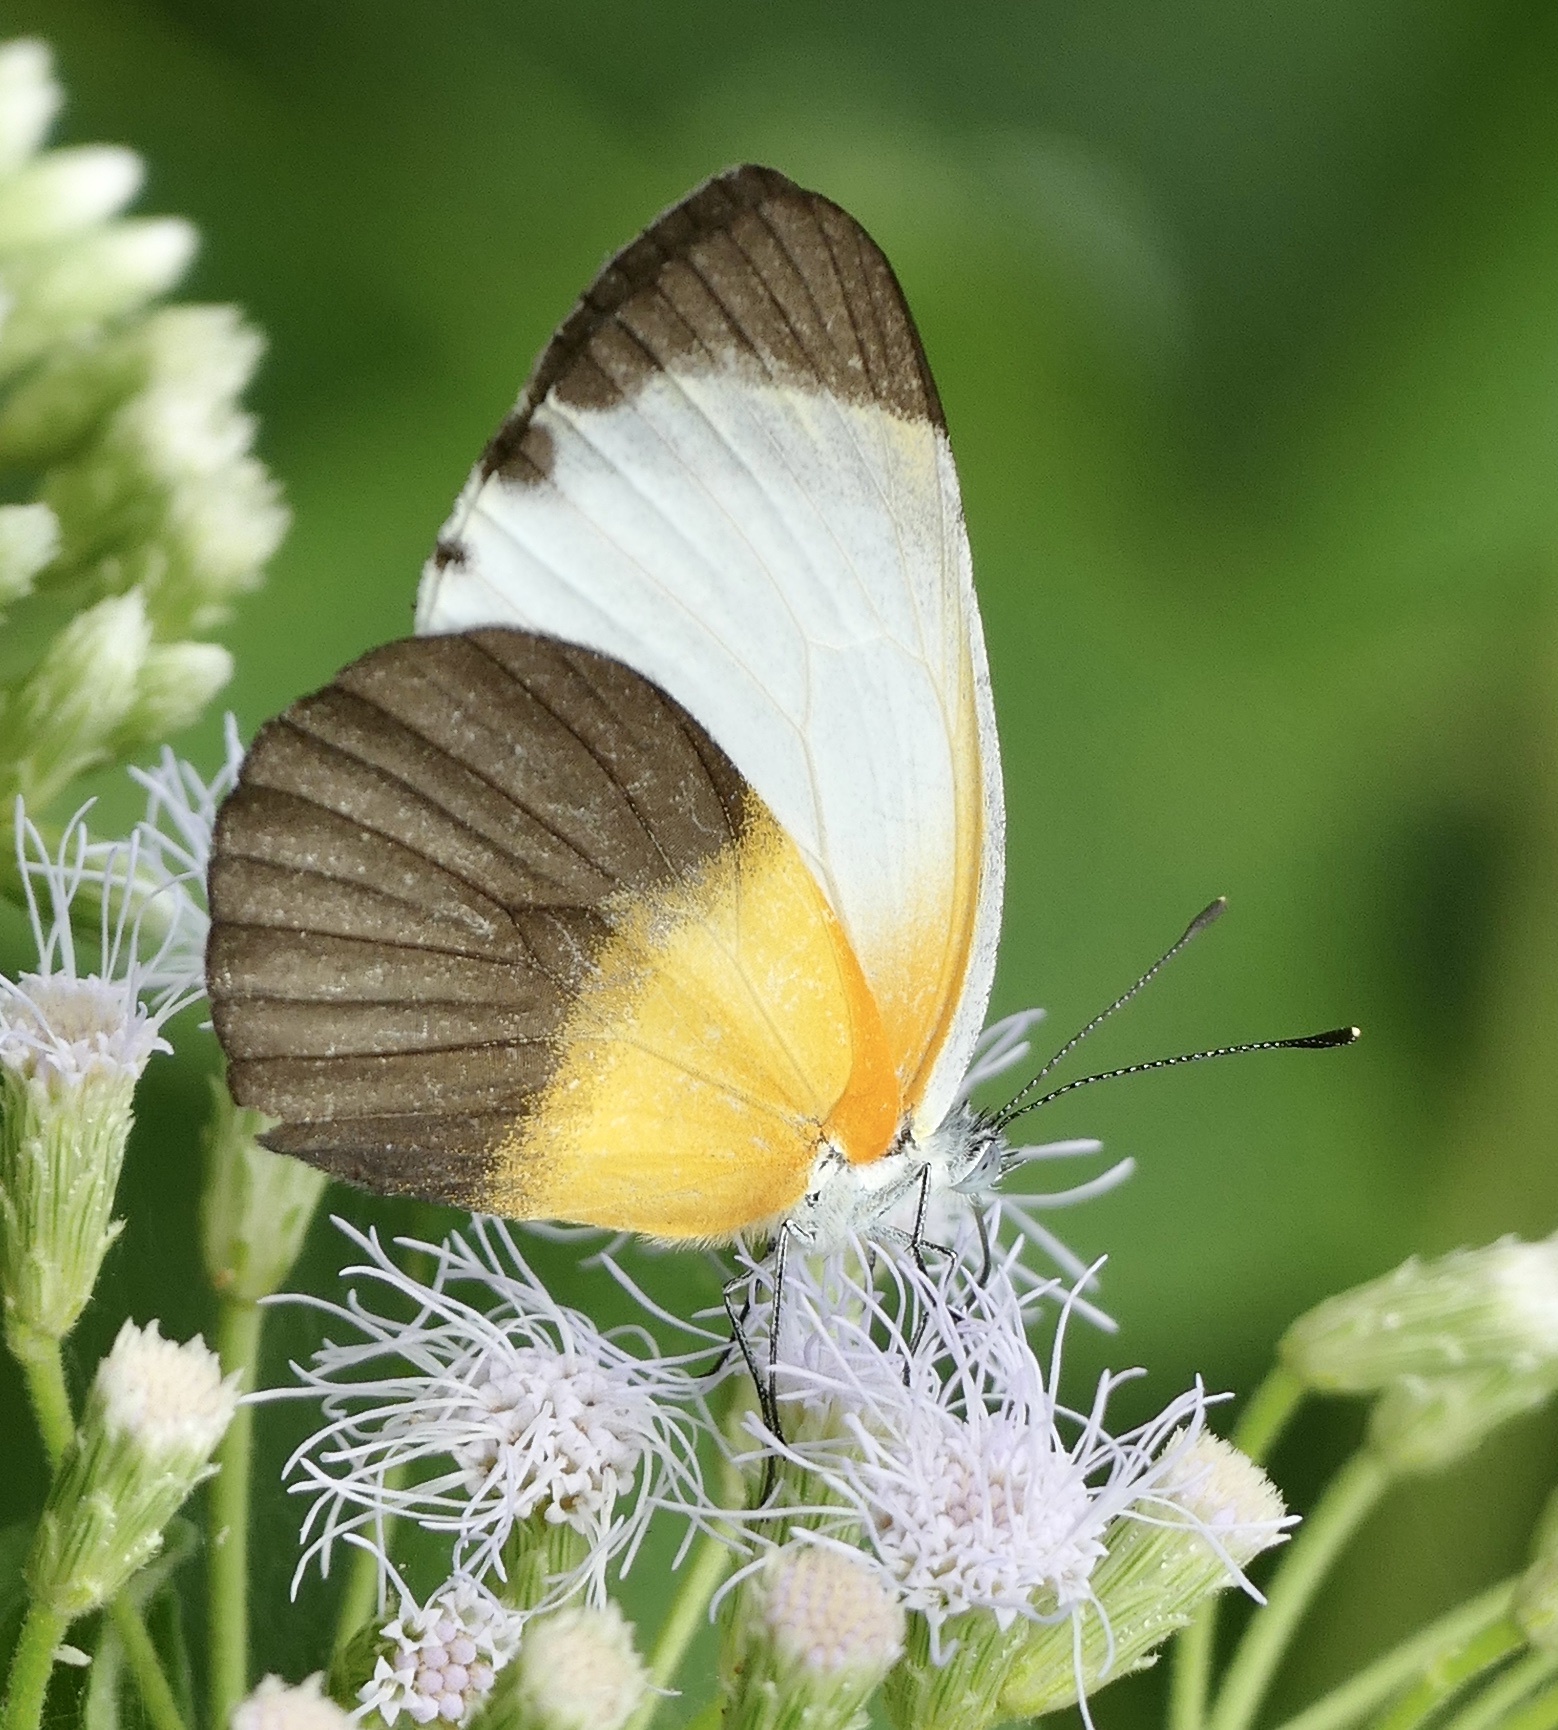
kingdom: Animalia
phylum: Arthropoda
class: Insecta
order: Lepidoptera
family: Pieridae
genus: Mylothris
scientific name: Mylothris chloris
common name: Western dotted border
